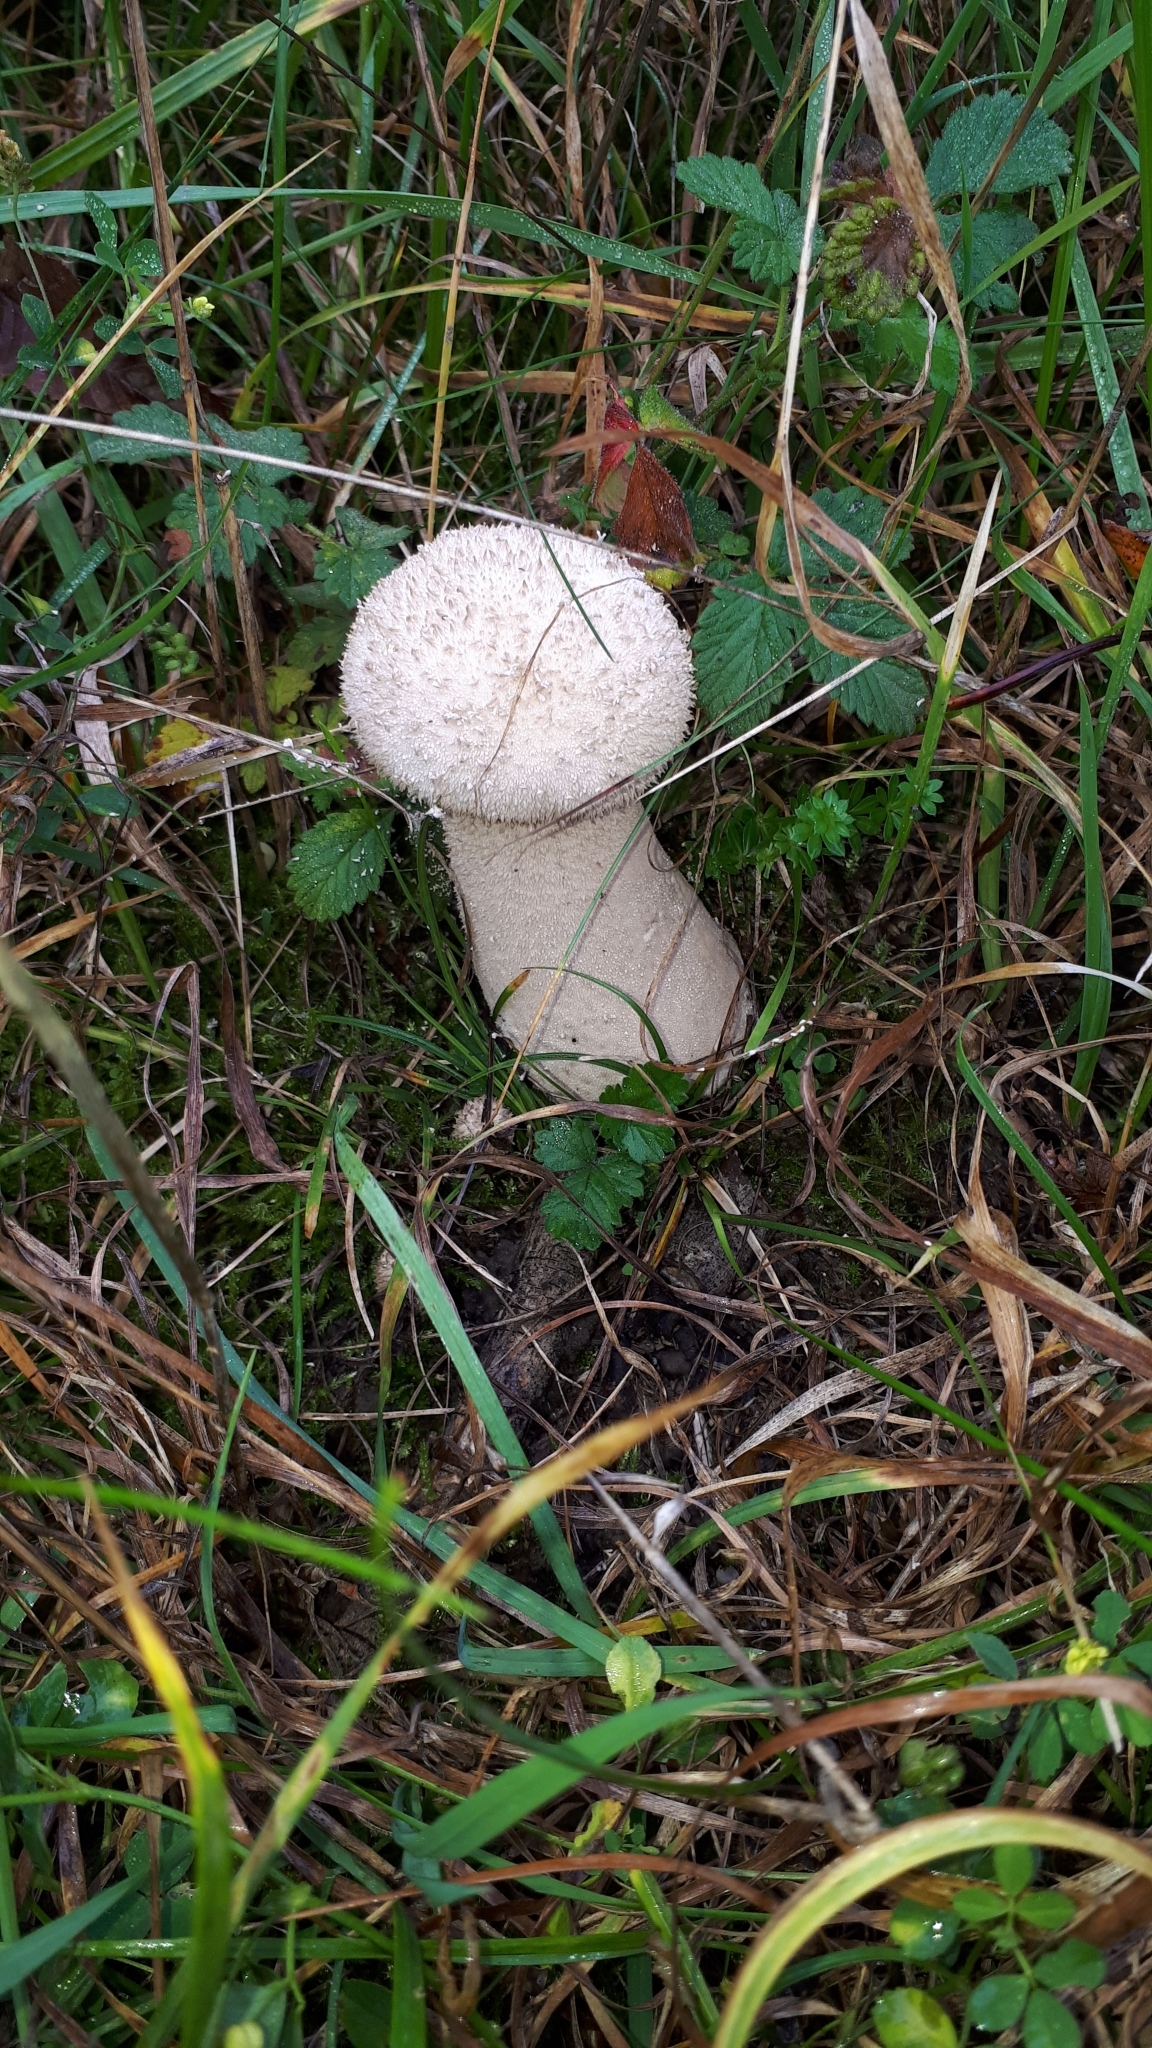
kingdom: Fungi
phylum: Basidiomycota
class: Agaricomycetes
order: Agaricales
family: Lycoperdaceae
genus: Lycoperdon
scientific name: Lycoperdon excipuliforme
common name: Pestle puffball
